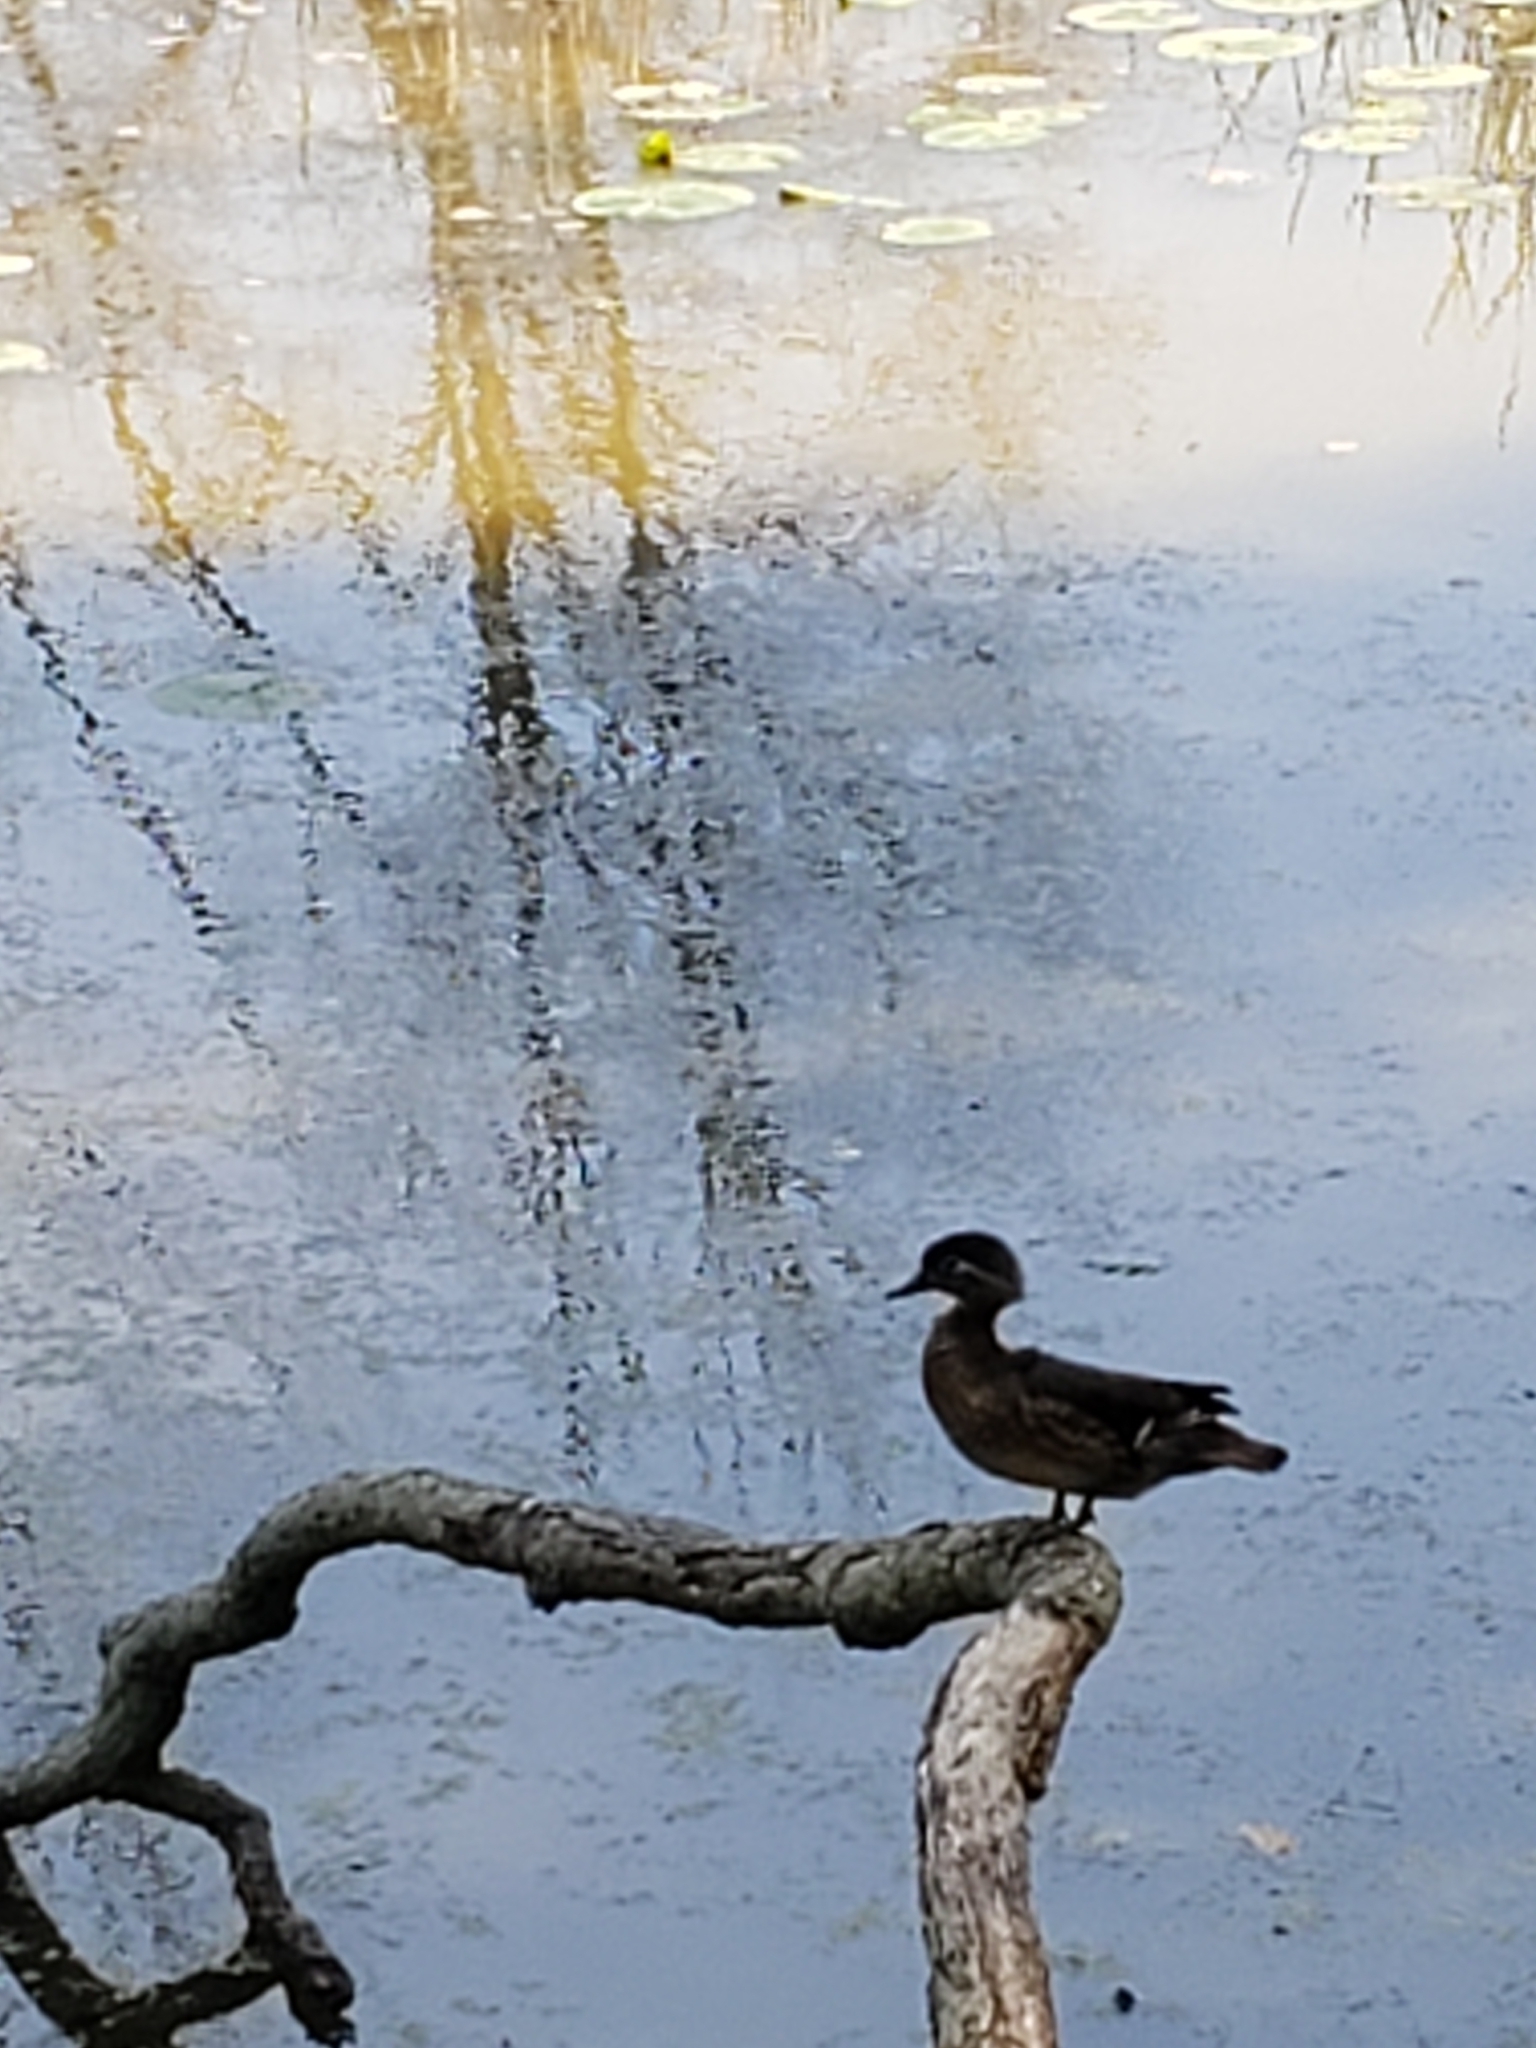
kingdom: Animalia
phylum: Chordata
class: Aves
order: Anseriformes
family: Anatidae
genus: Aix
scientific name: Aix sponsa
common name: Wood duck
